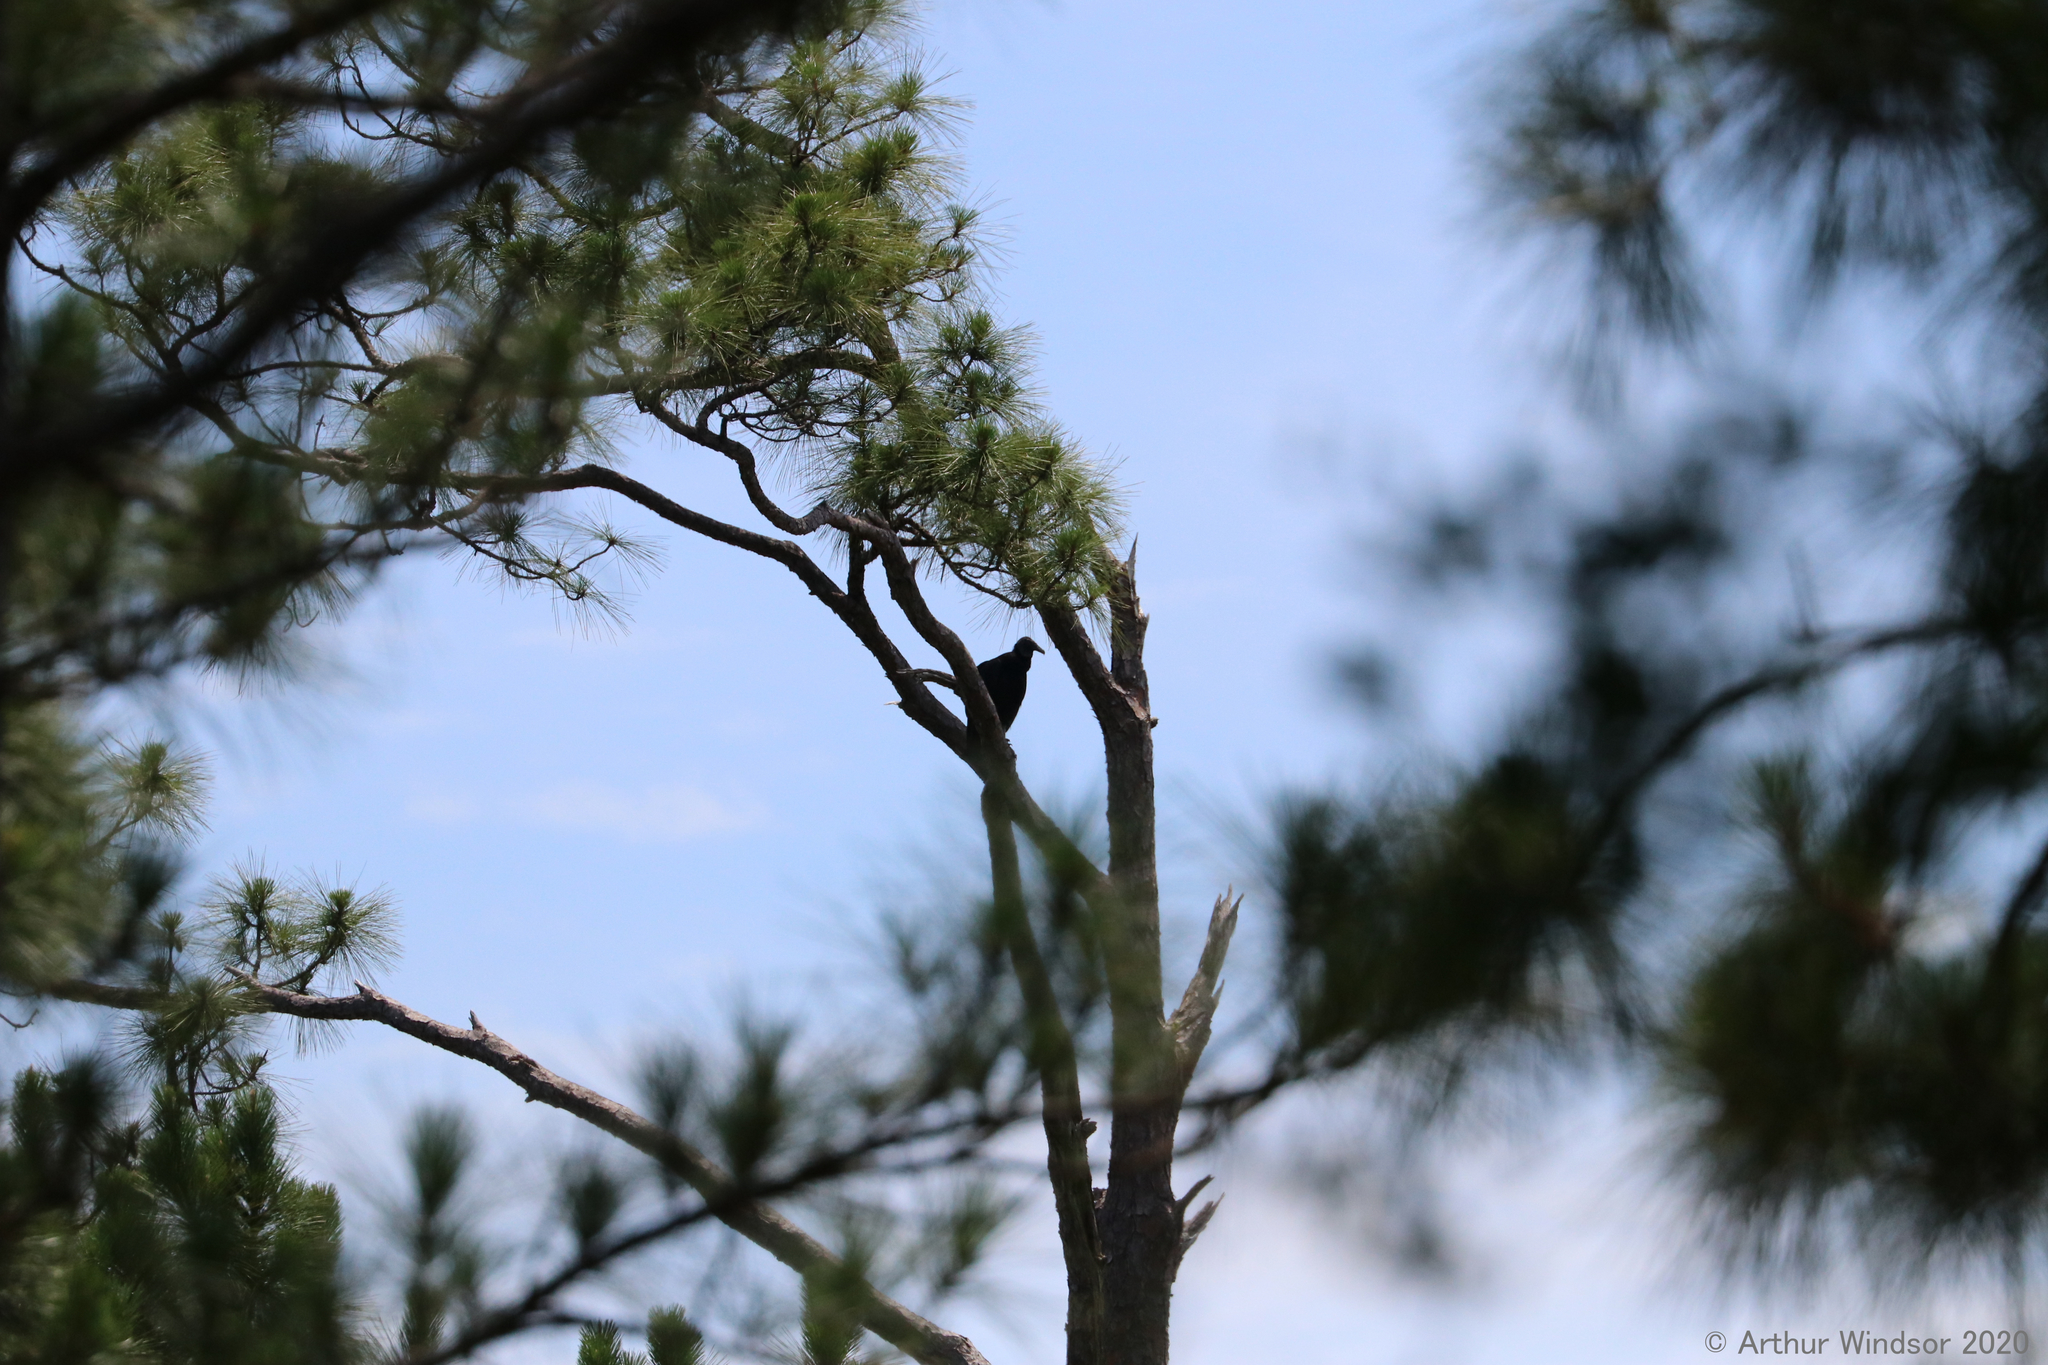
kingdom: Animalia
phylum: Chordata
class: Aves
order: Accipitriformes
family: Cathartidae
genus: Coragyps
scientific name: Coragyps atratus
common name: Black vulture
